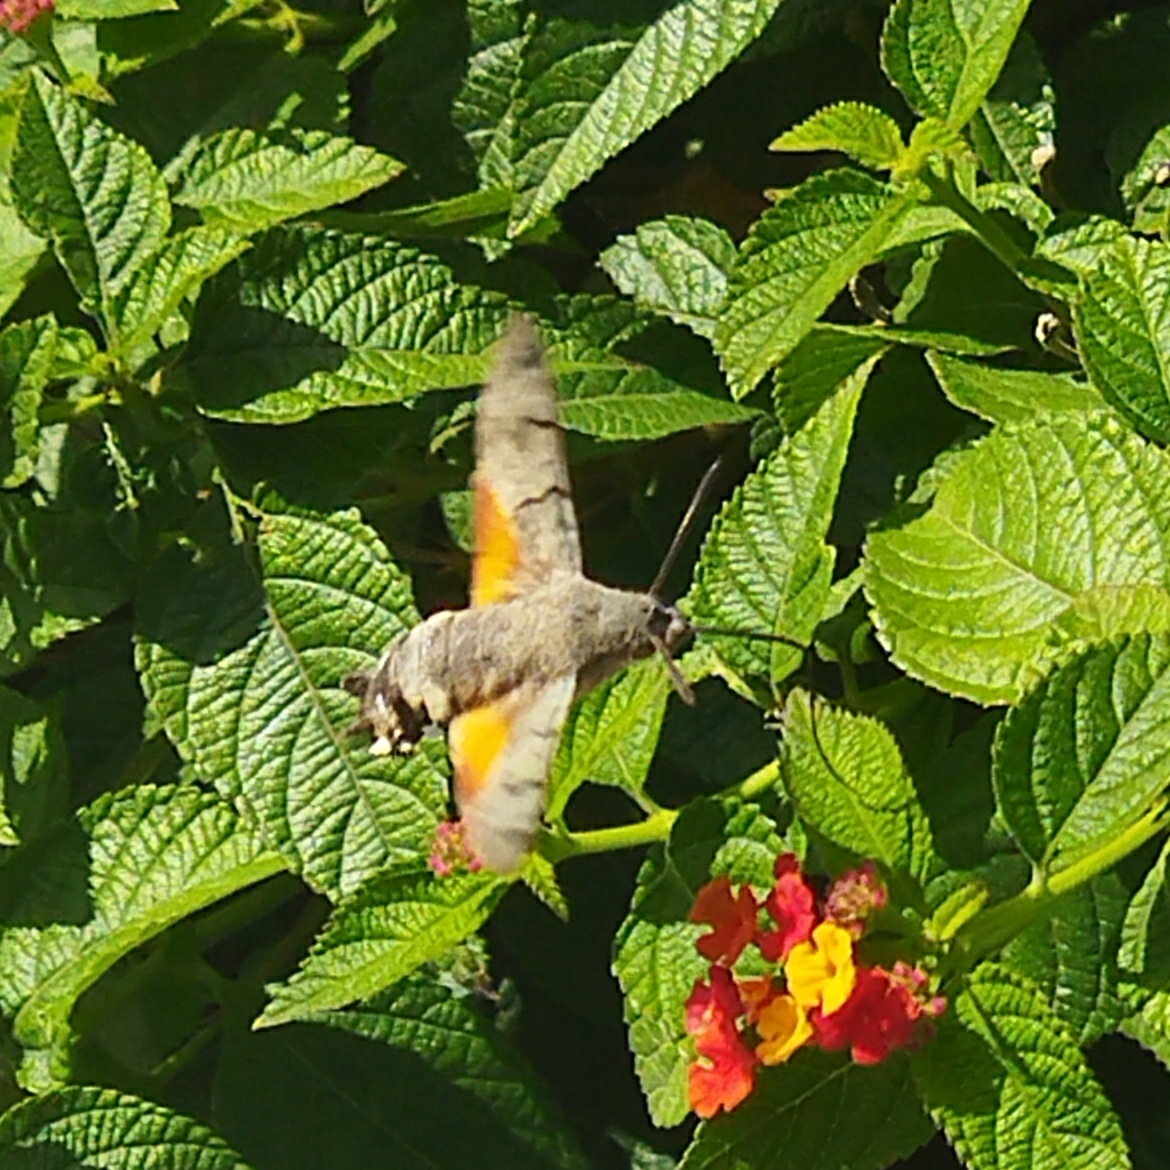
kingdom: Animalia
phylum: Arthropoda
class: Insecta
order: Lepidoptera
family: Sphingidae
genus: Macroglossum
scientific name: Macroglossum stellatarum
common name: Humming-bird hawk-moth
